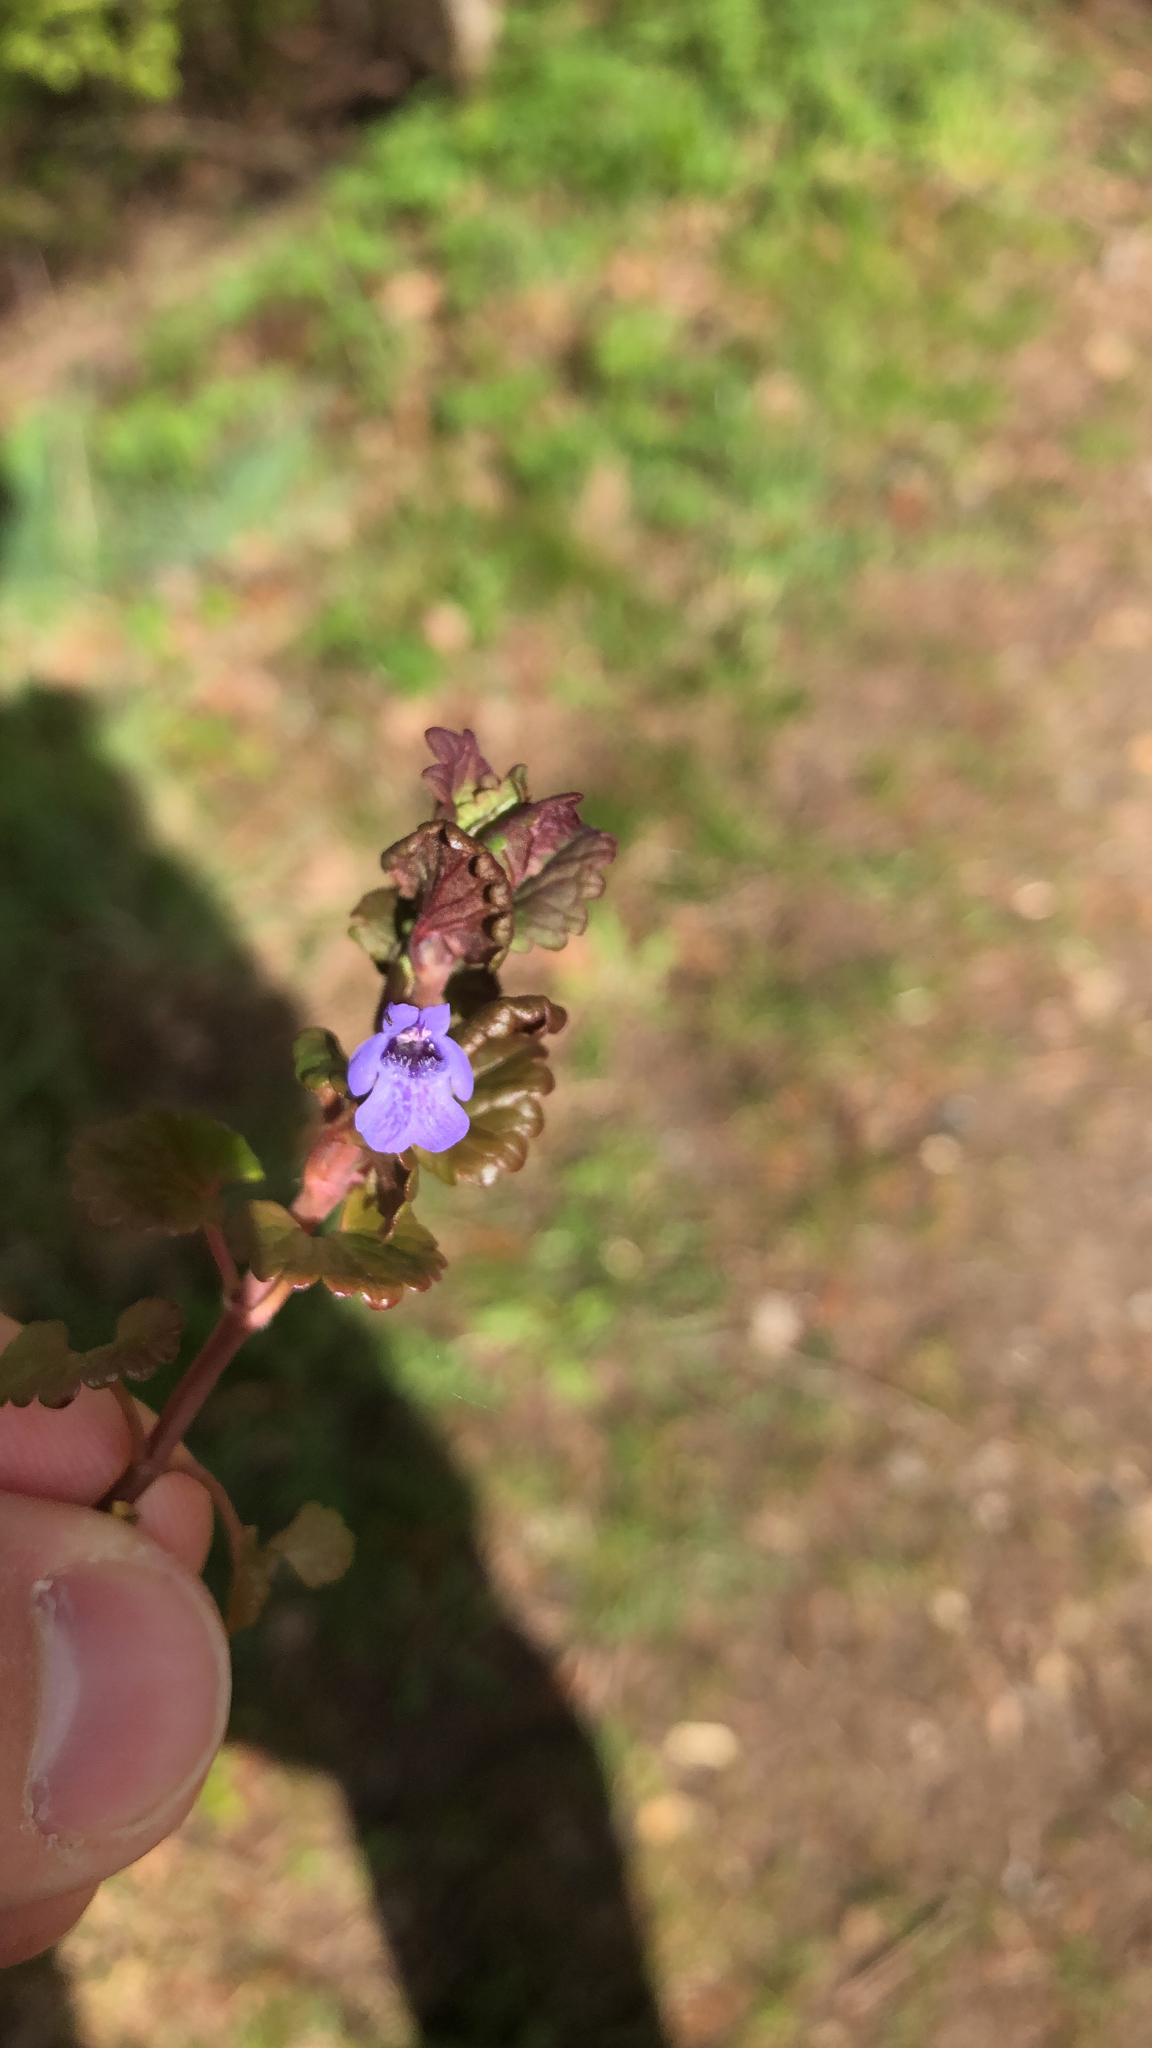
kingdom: Plantae
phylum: Tracheophyta
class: Magnoliopsida
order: Lamiales
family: Lamiaceae
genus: Glechoma
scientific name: Glechoma hederacea
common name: Ground ivy
